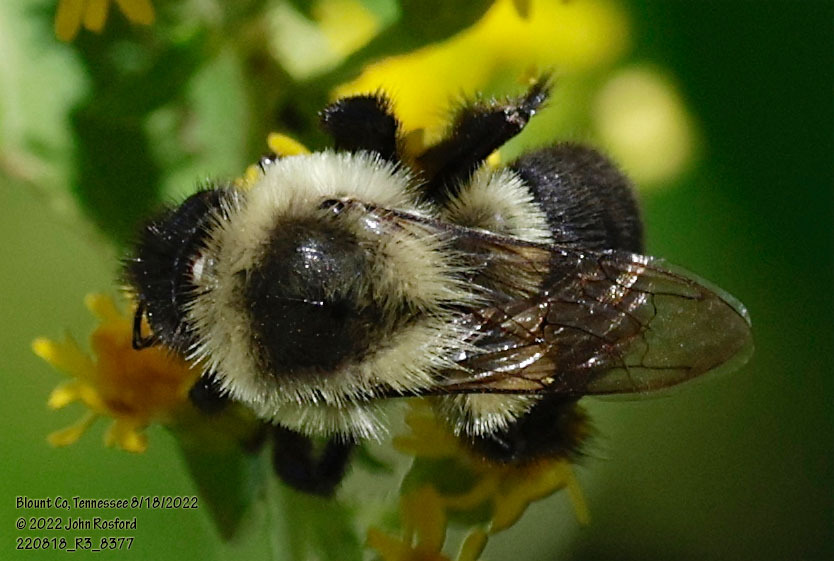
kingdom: Animalia
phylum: Arthropoda
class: Insecta
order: Hymenoptera
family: Apidae
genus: Bombus
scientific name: Bombus impatiens
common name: Common eastern bumble bee
